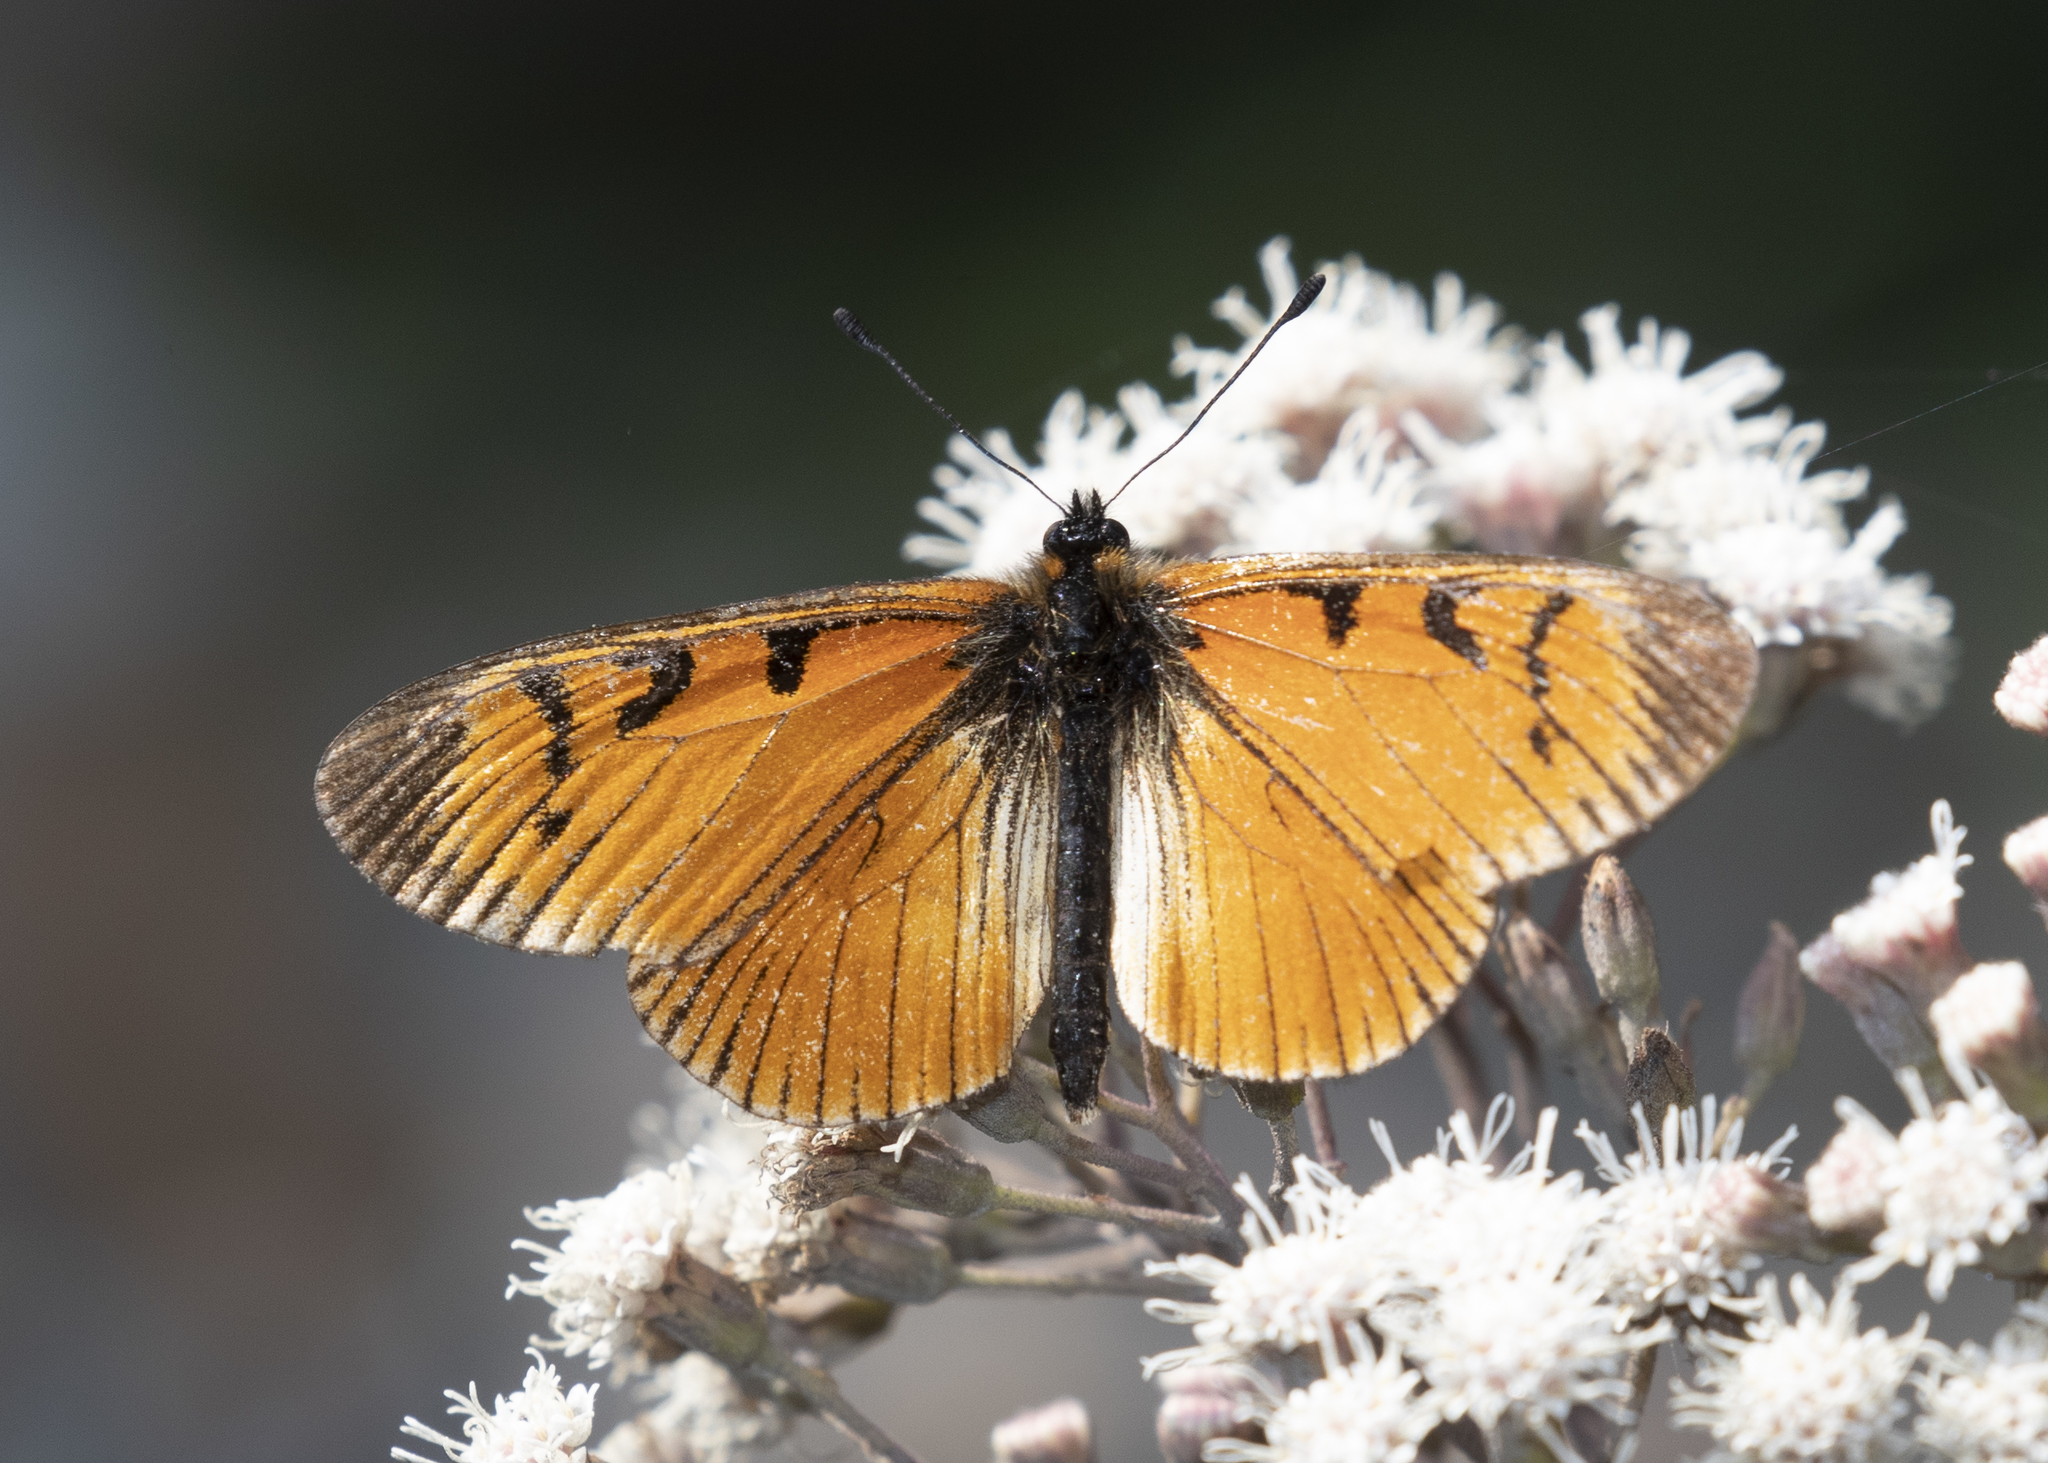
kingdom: Animalia
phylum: Arthropoda
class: Insecta
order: Lepidoptera
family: Nymphalidae
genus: Acraea
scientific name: Acraea Altinote eresia
